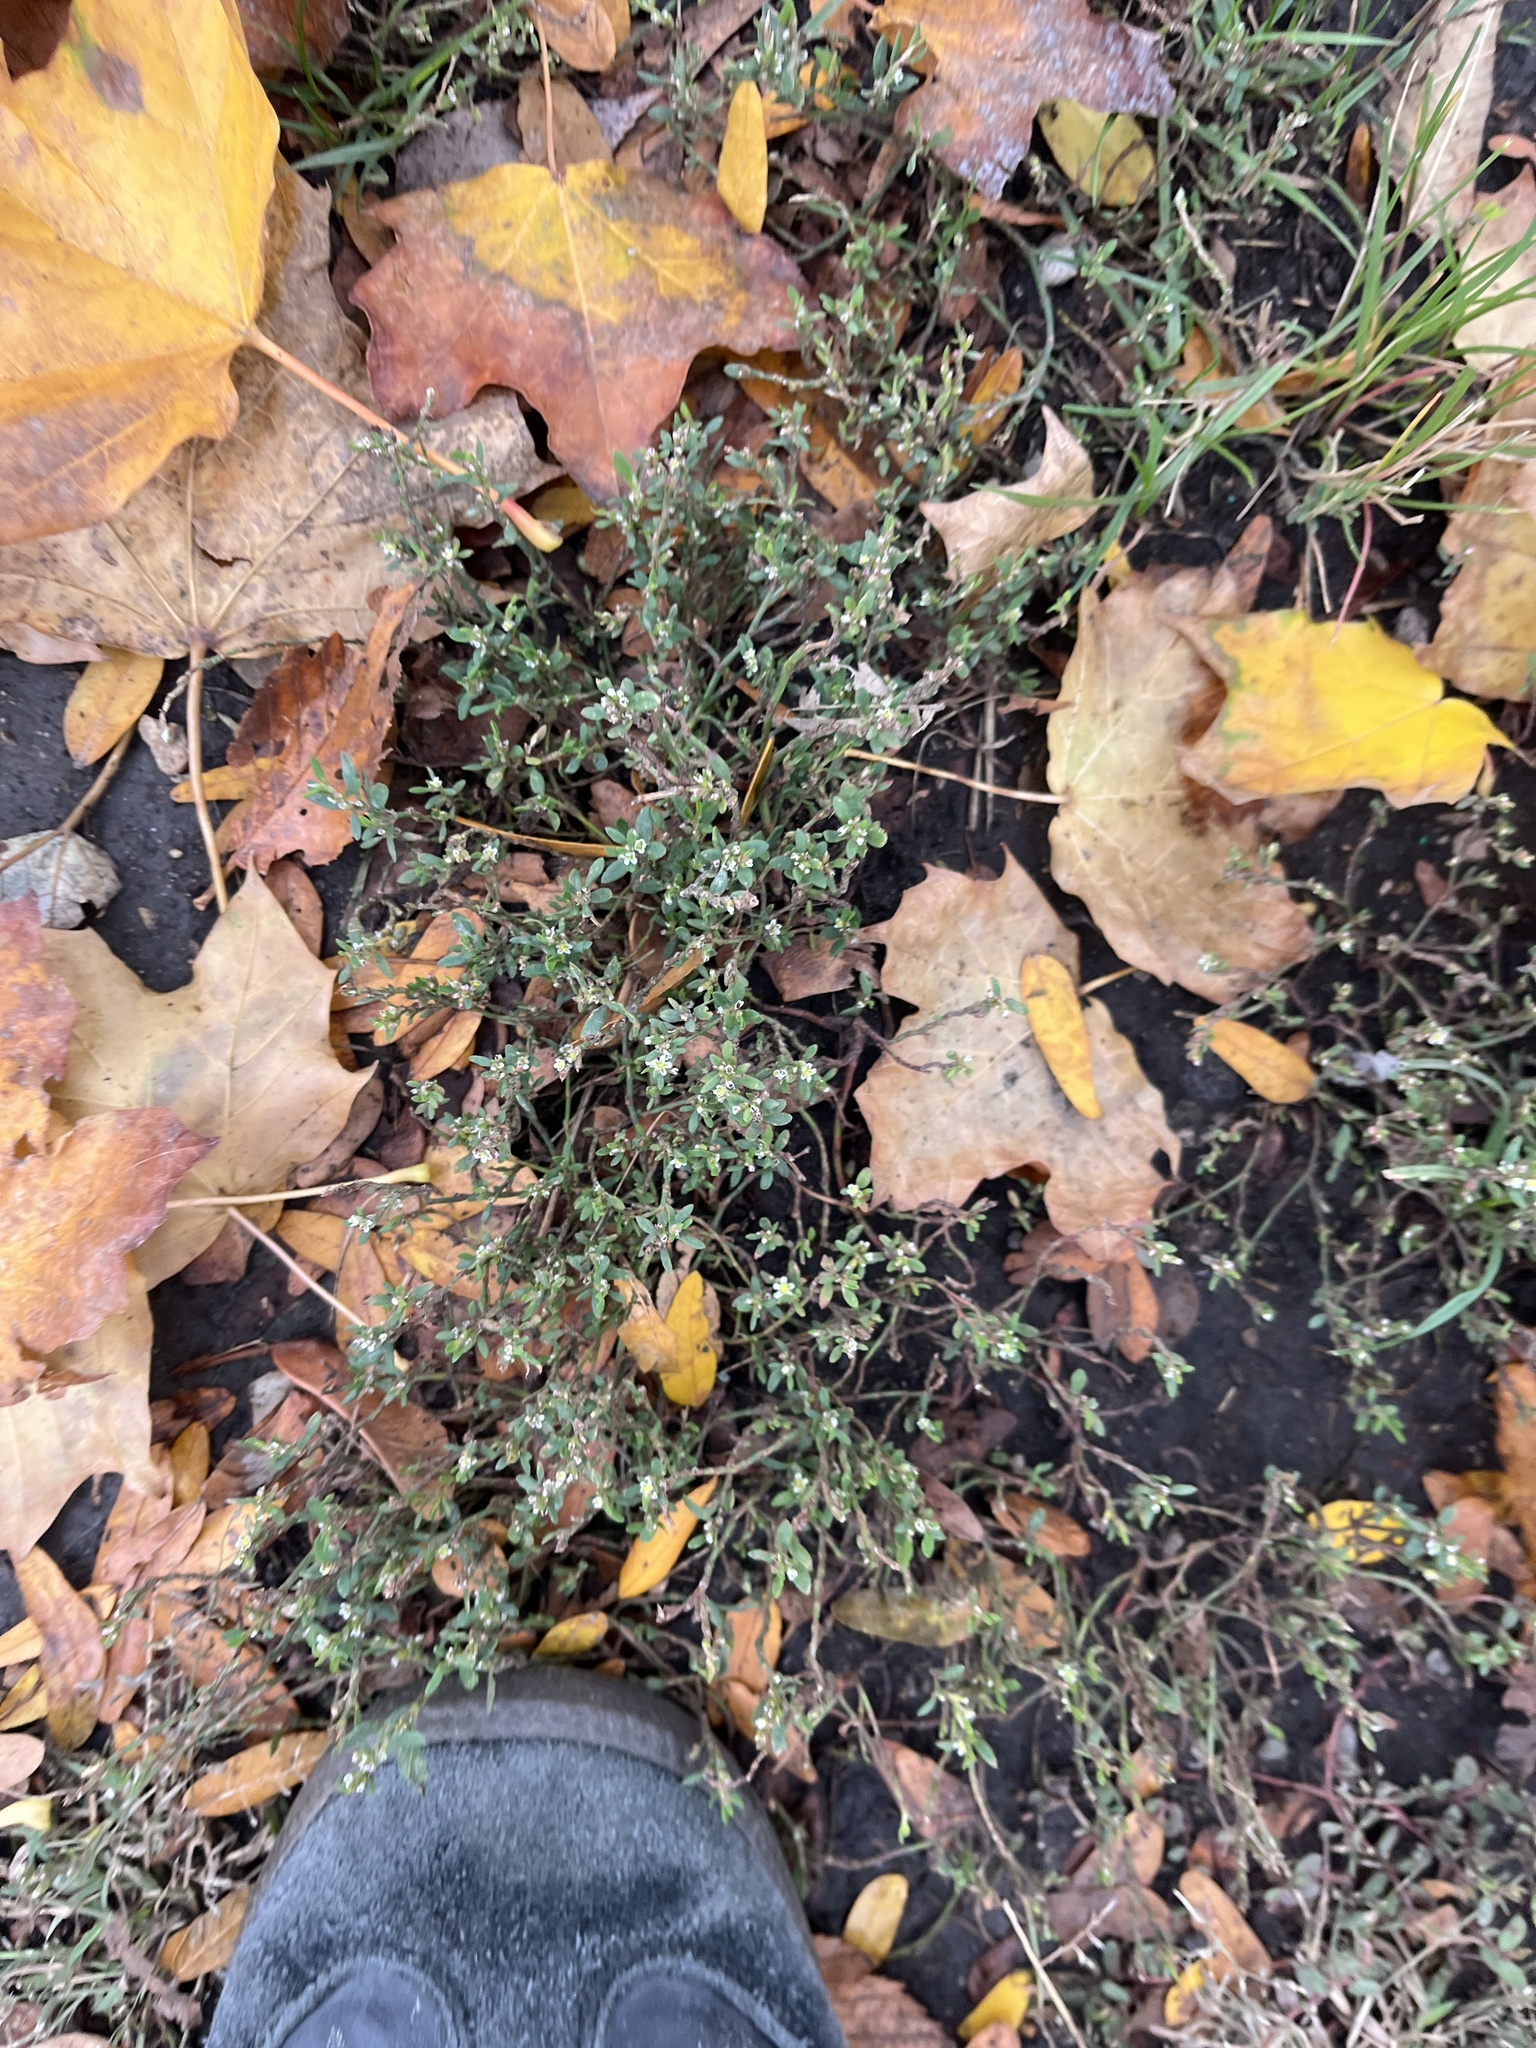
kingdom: Plantae
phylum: Tracheophyta
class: Magnoliopsida
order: Caryophyllales
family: Polygonaceae
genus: Polygonum
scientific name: Polygonum aviculare
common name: Prostrate knotweed
